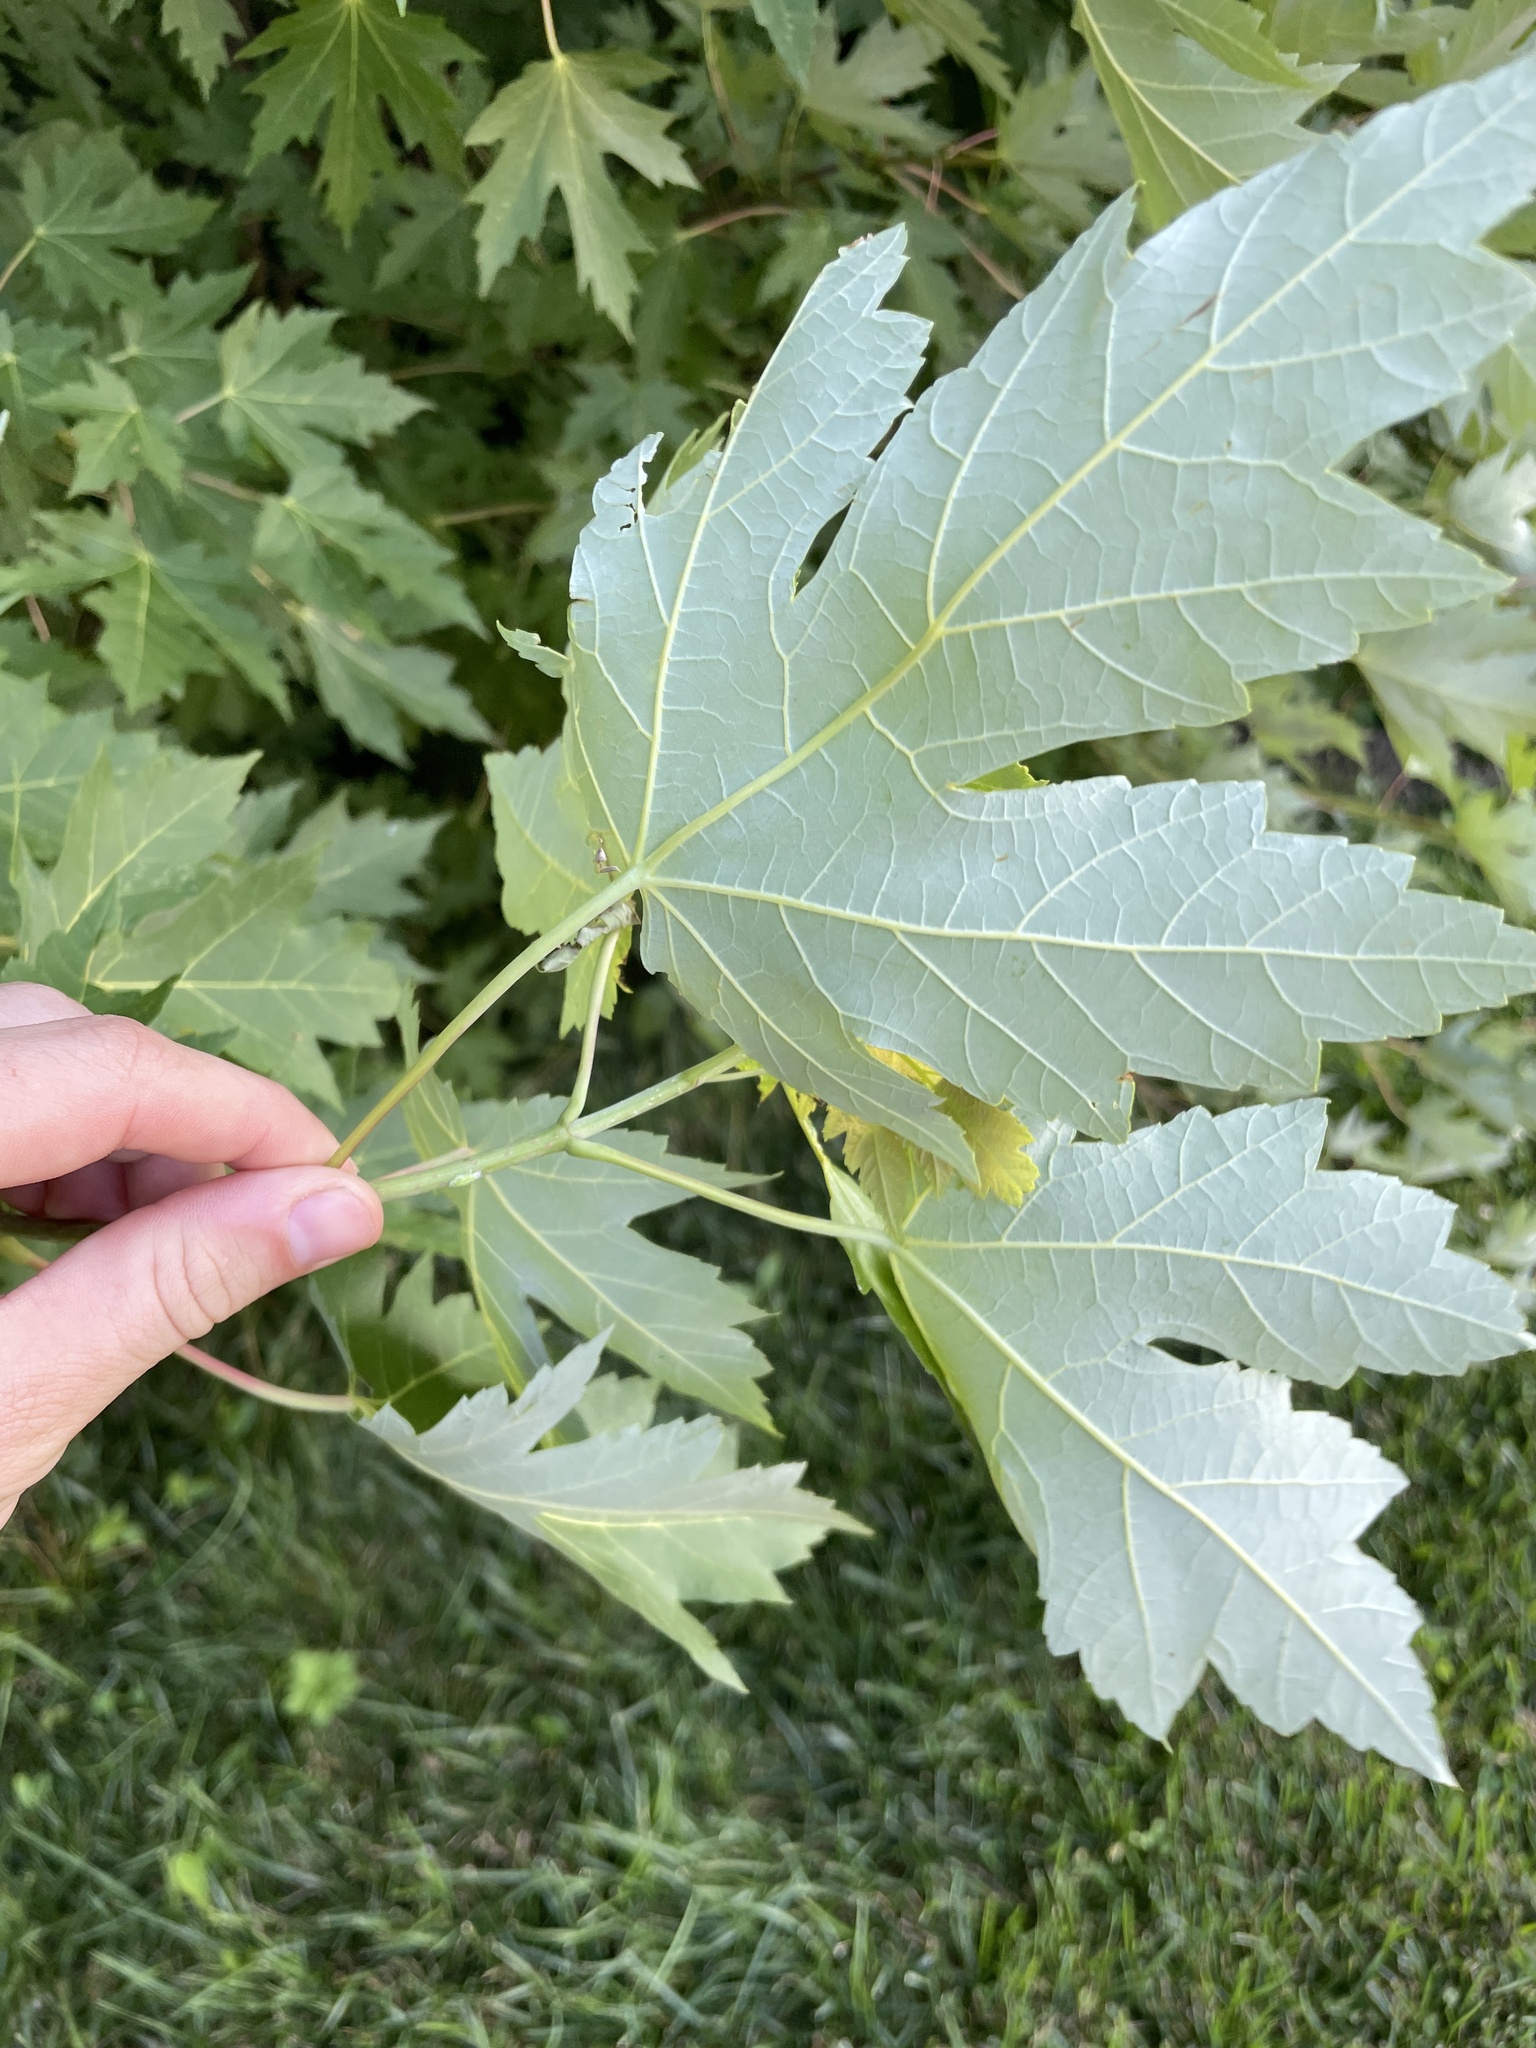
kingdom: Plantae
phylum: Tracheophyta
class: Magnoliopsida
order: Sapindales
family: Sapindaceae
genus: Acer
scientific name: Acer saccharinum
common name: Silver maple
